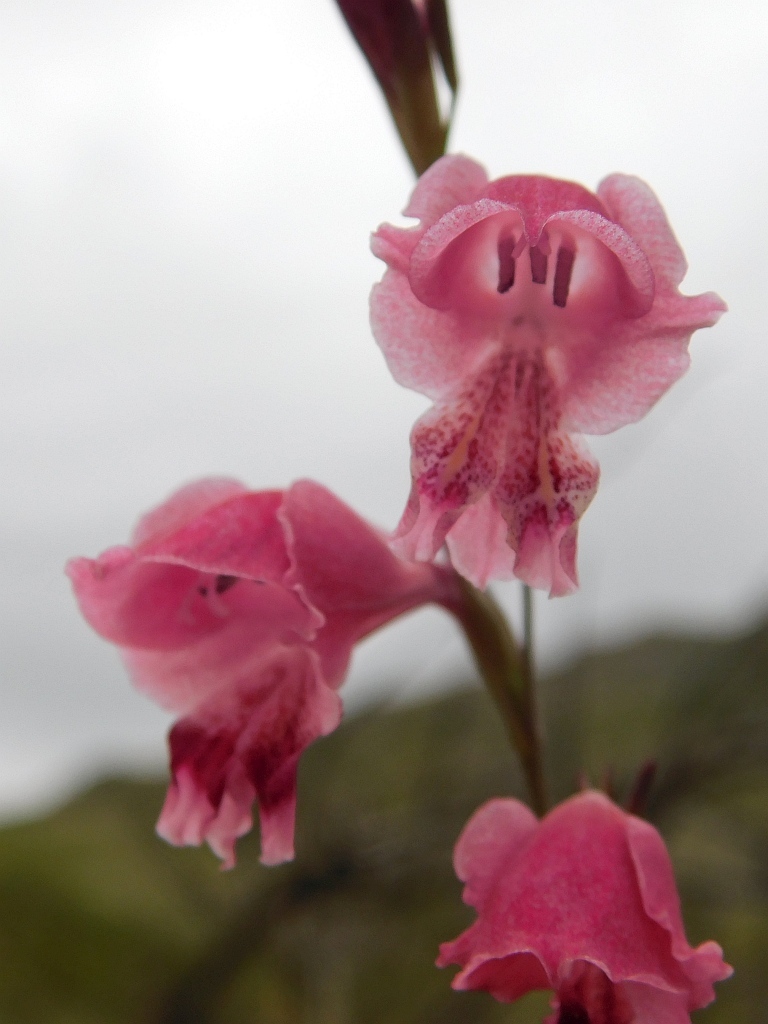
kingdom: Plantae
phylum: Tracheophyta
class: Liliopsida
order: Asparagales
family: Iridaceae
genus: Gladiolus
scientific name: Gladiolus brevifolius
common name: March pypie
